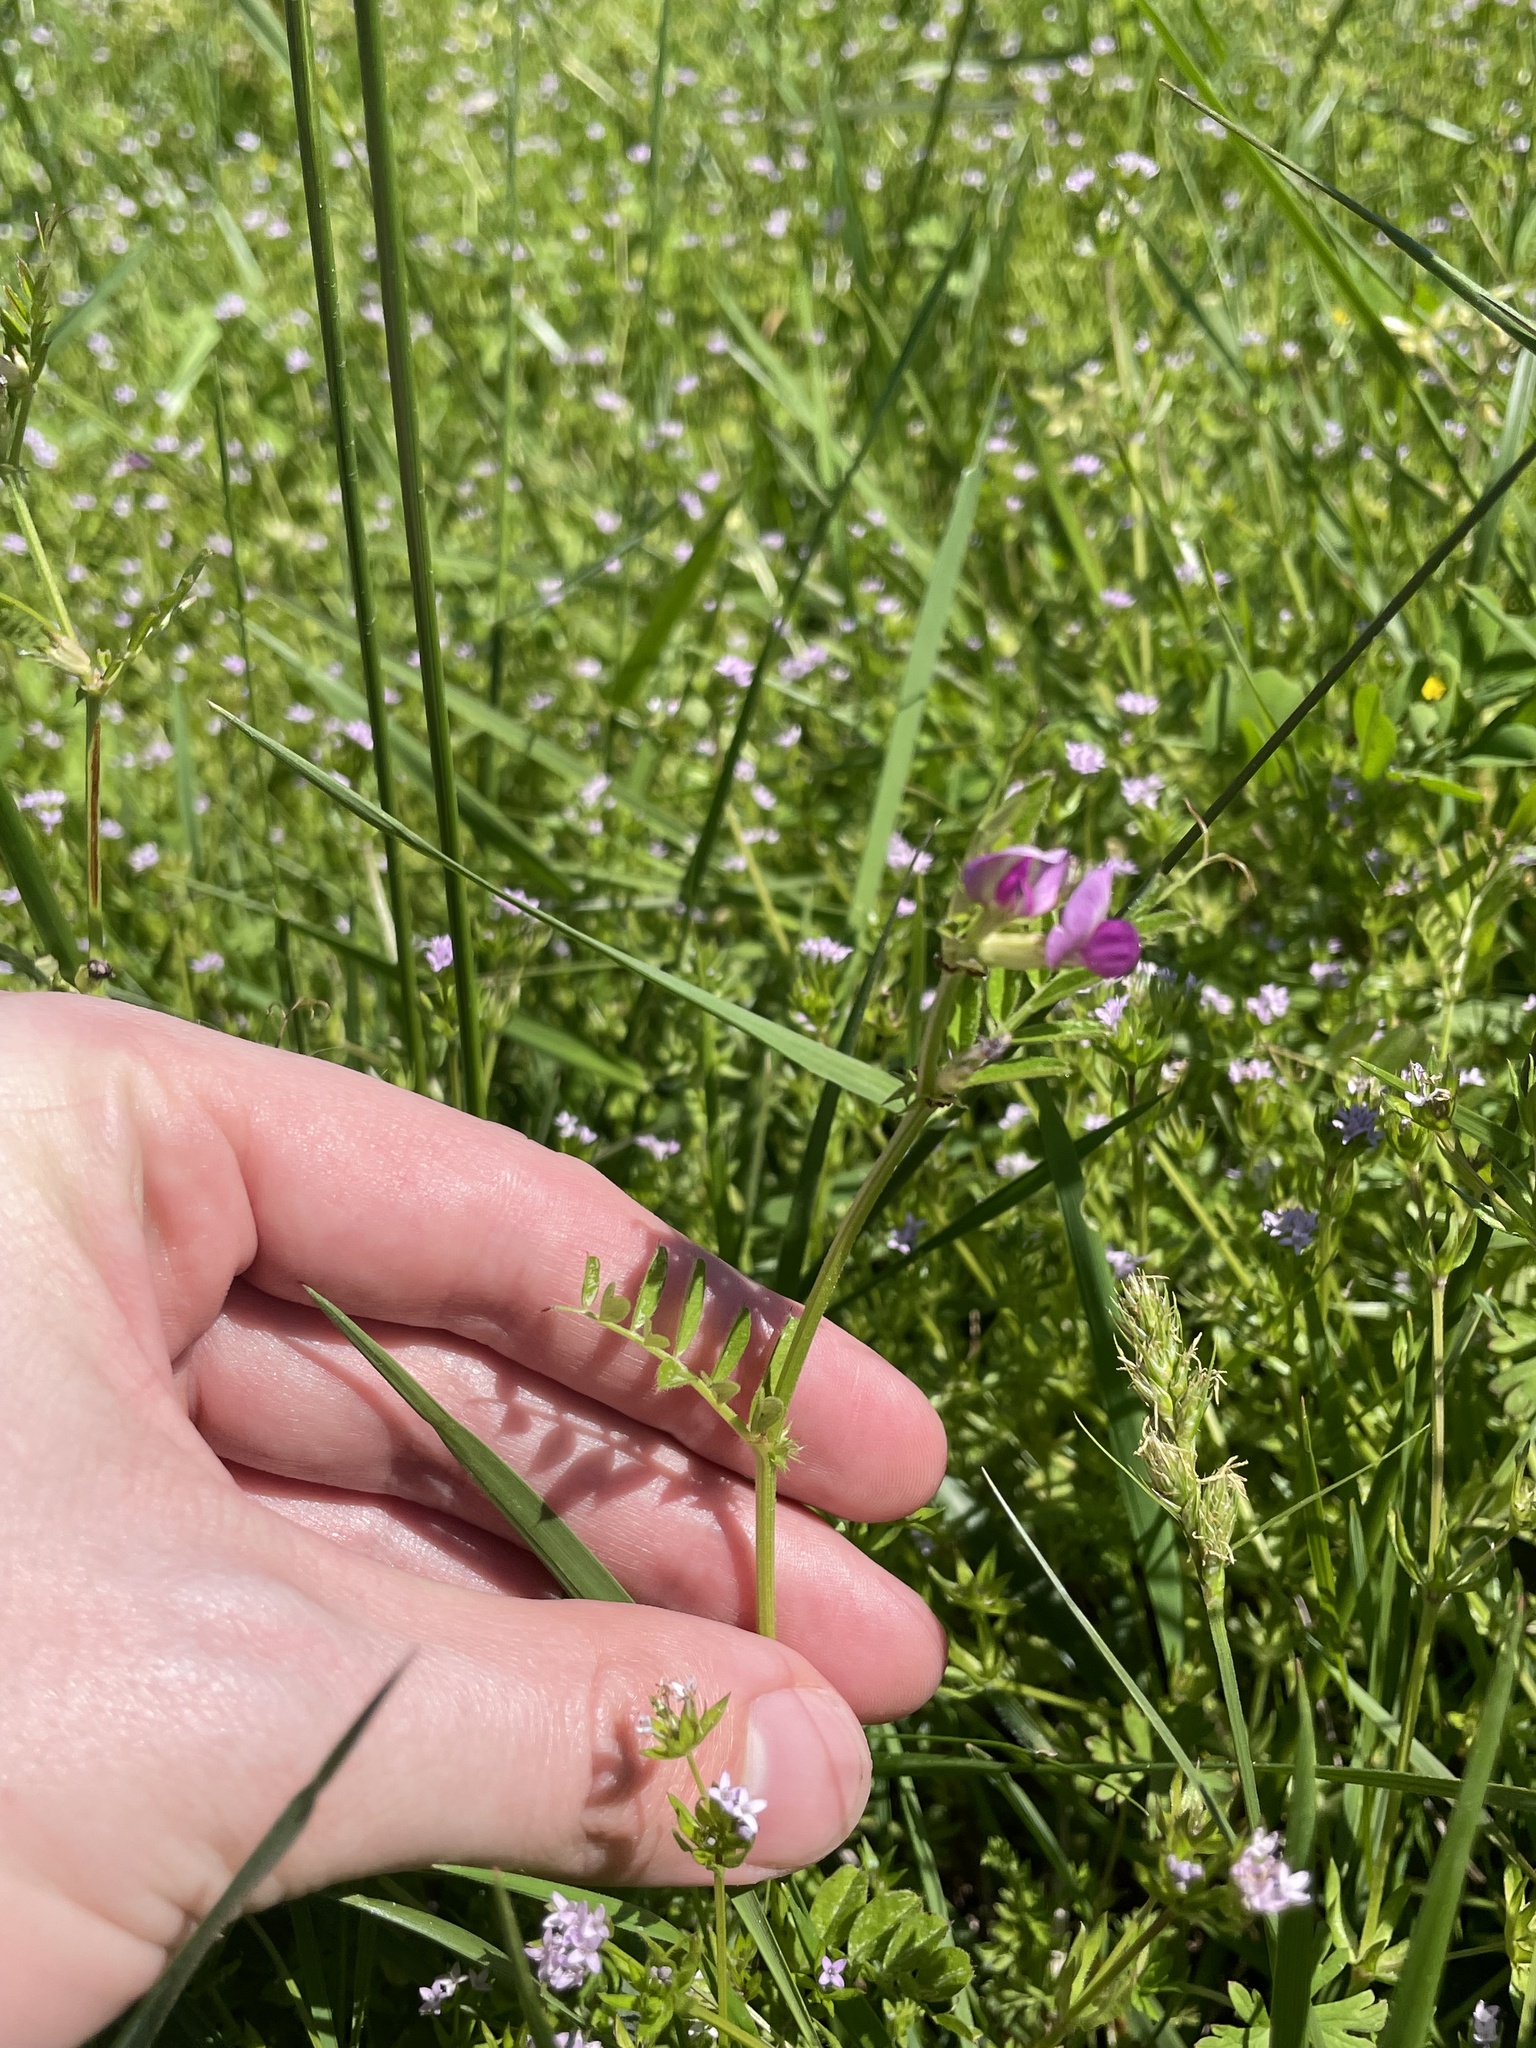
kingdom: Plantae
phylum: Tracheophyta
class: Magnoliopsida
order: Fabales
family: Fabaceae
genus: Vicia
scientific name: Vicia sativa
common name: Garden vetch
